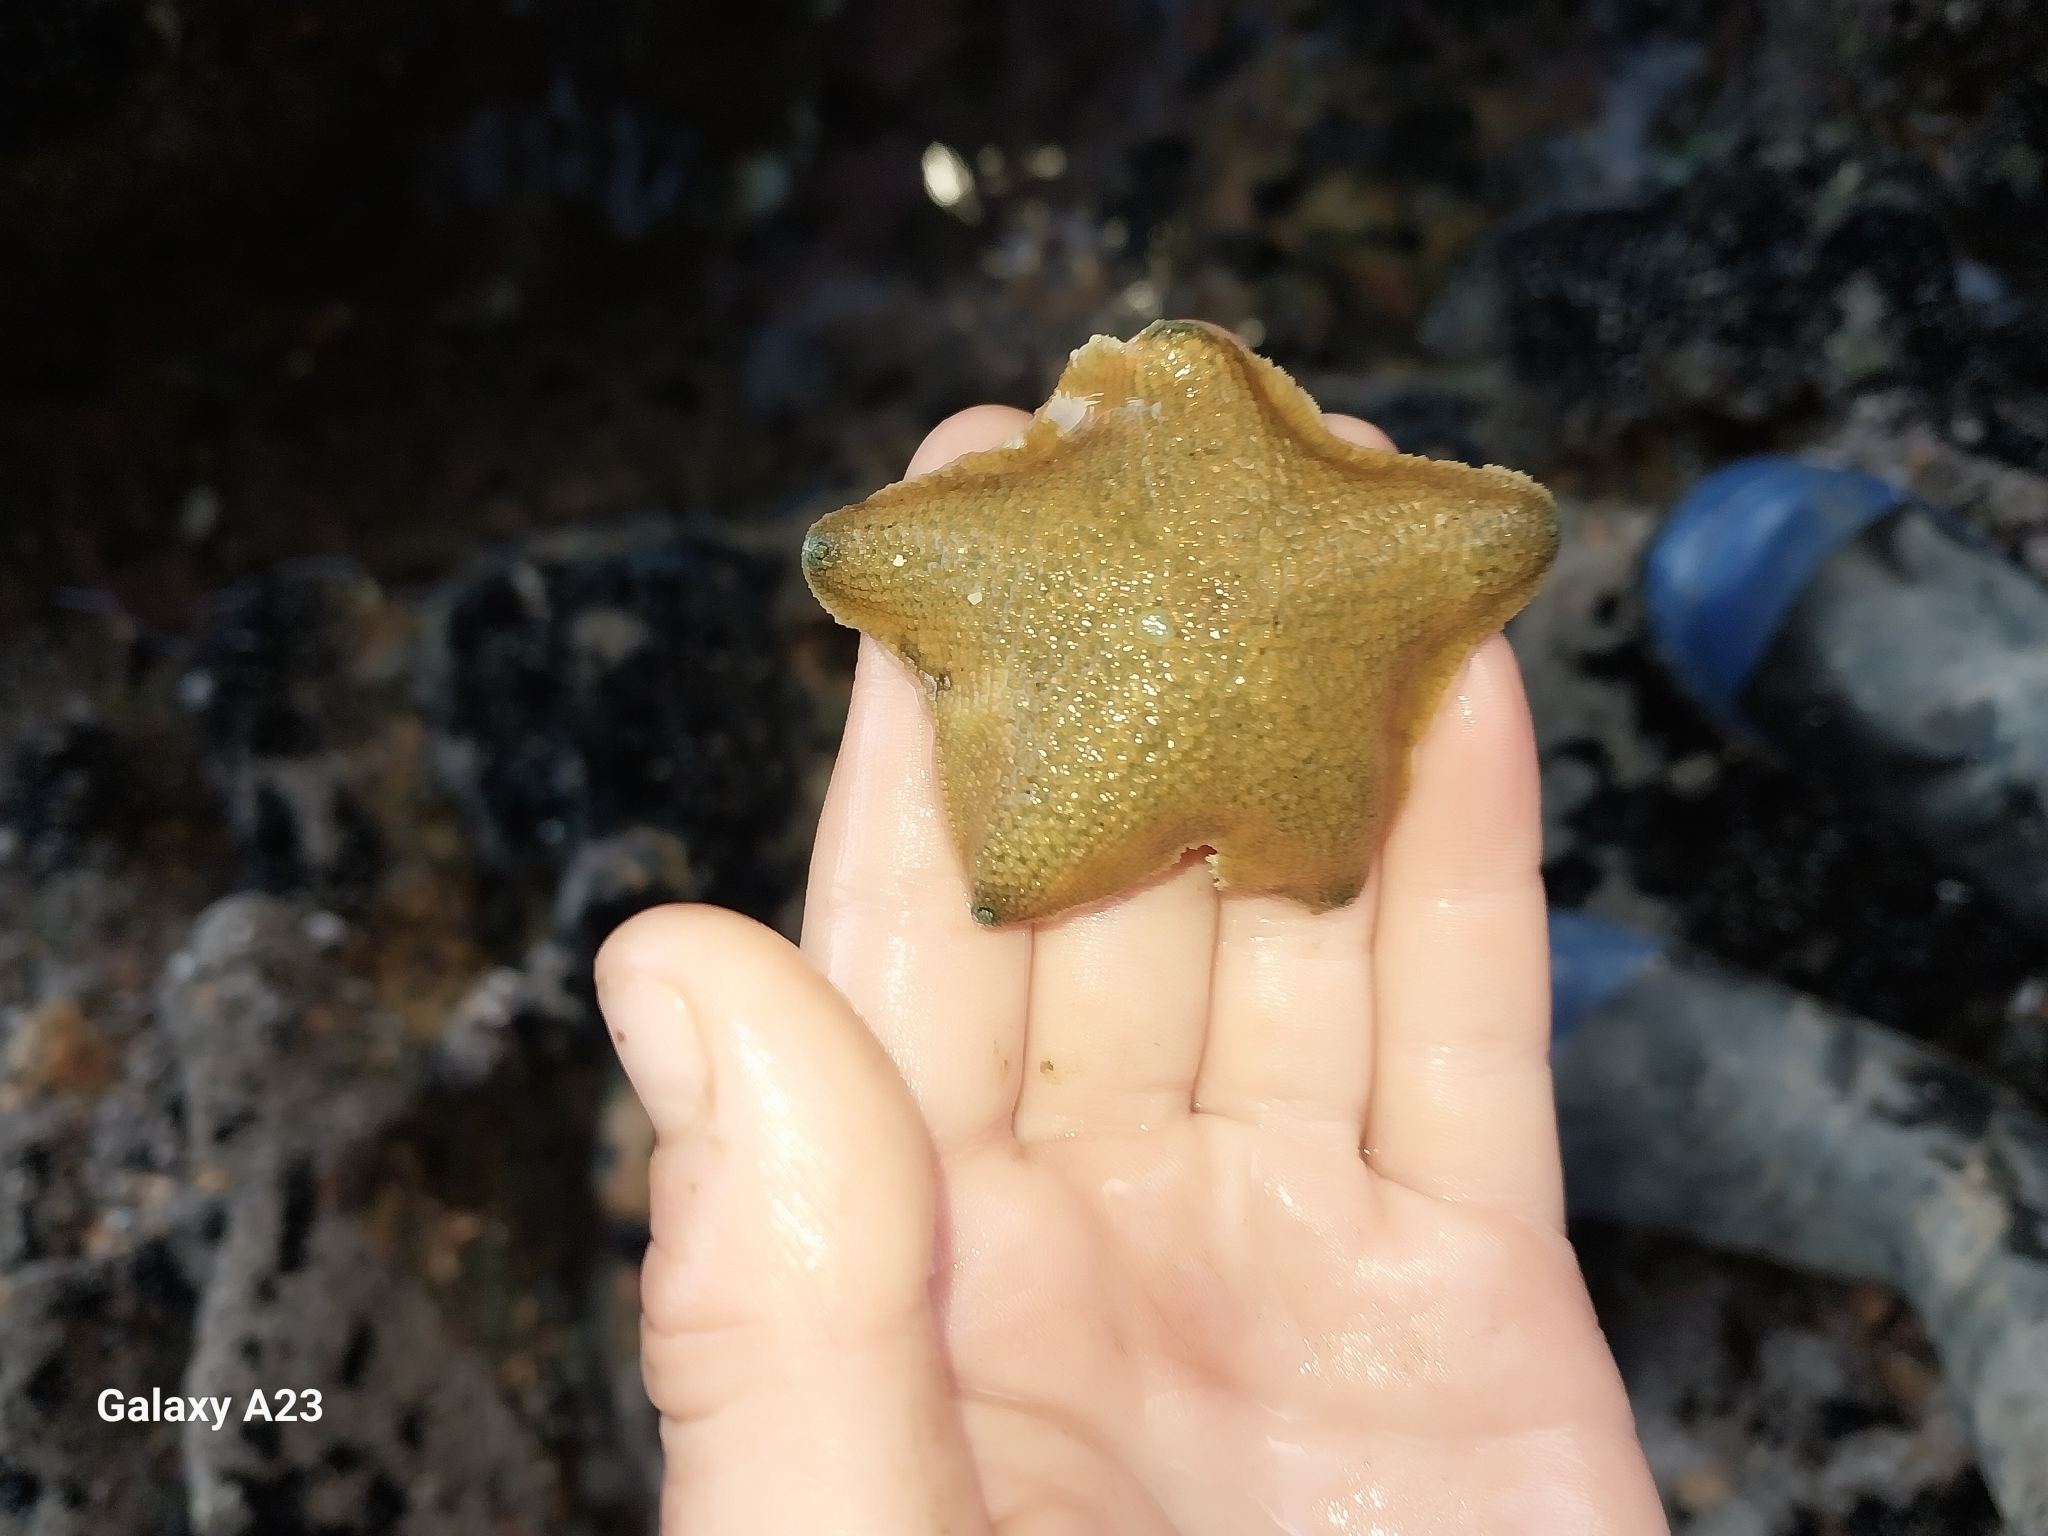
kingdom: Animalia
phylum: Echinodermata
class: Asteroidea
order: Valvatida
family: Asterinidae
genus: Patiriella
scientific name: Patiriella regularis
